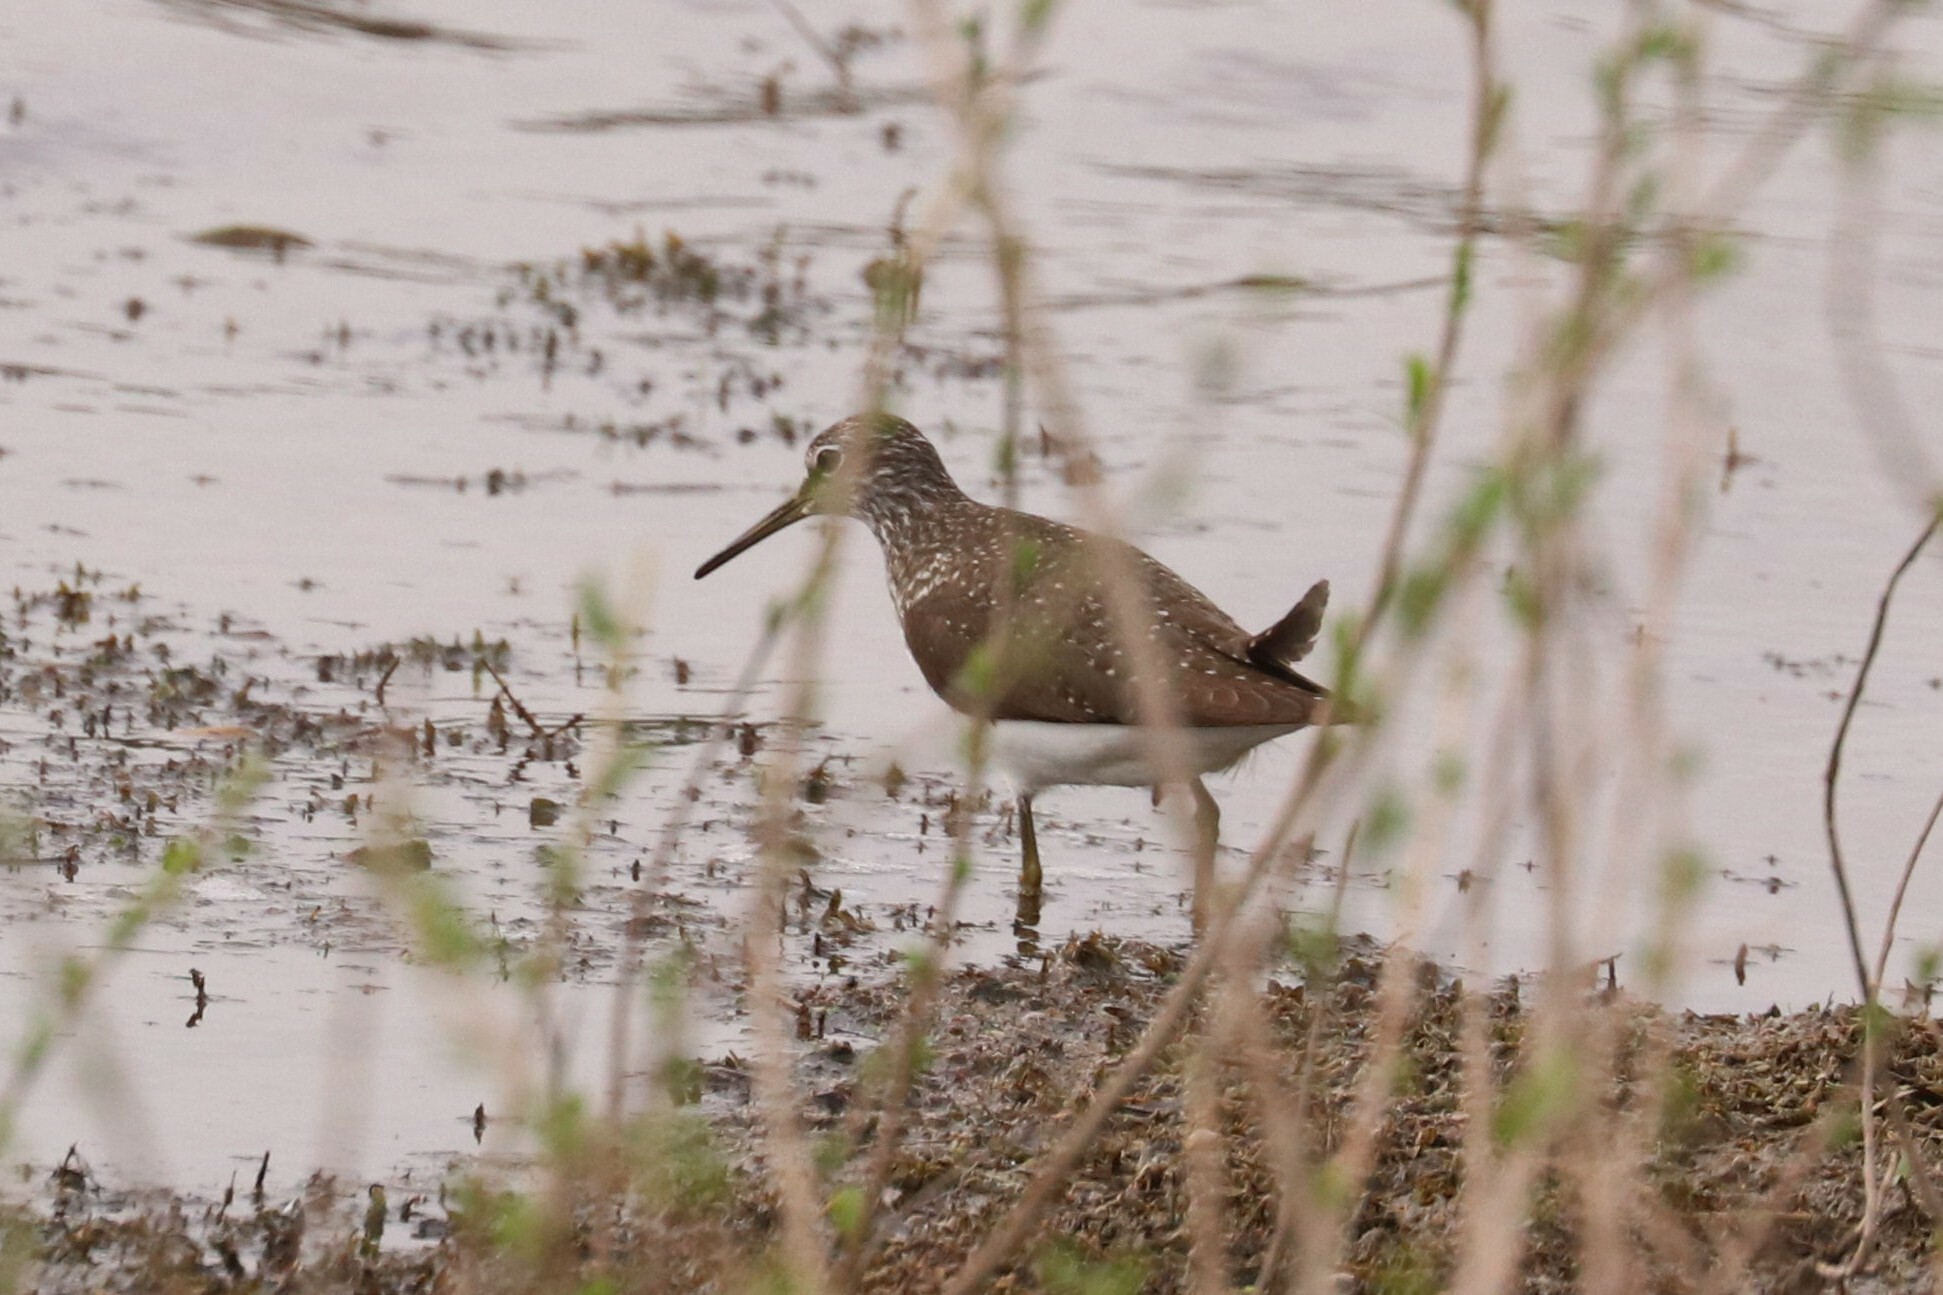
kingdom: Animalia
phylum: Chordata
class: Aves
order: Charadriiformes
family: Scolopacidae
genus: Tringa
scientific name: Tringa ochropus
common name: Green sandpiper
